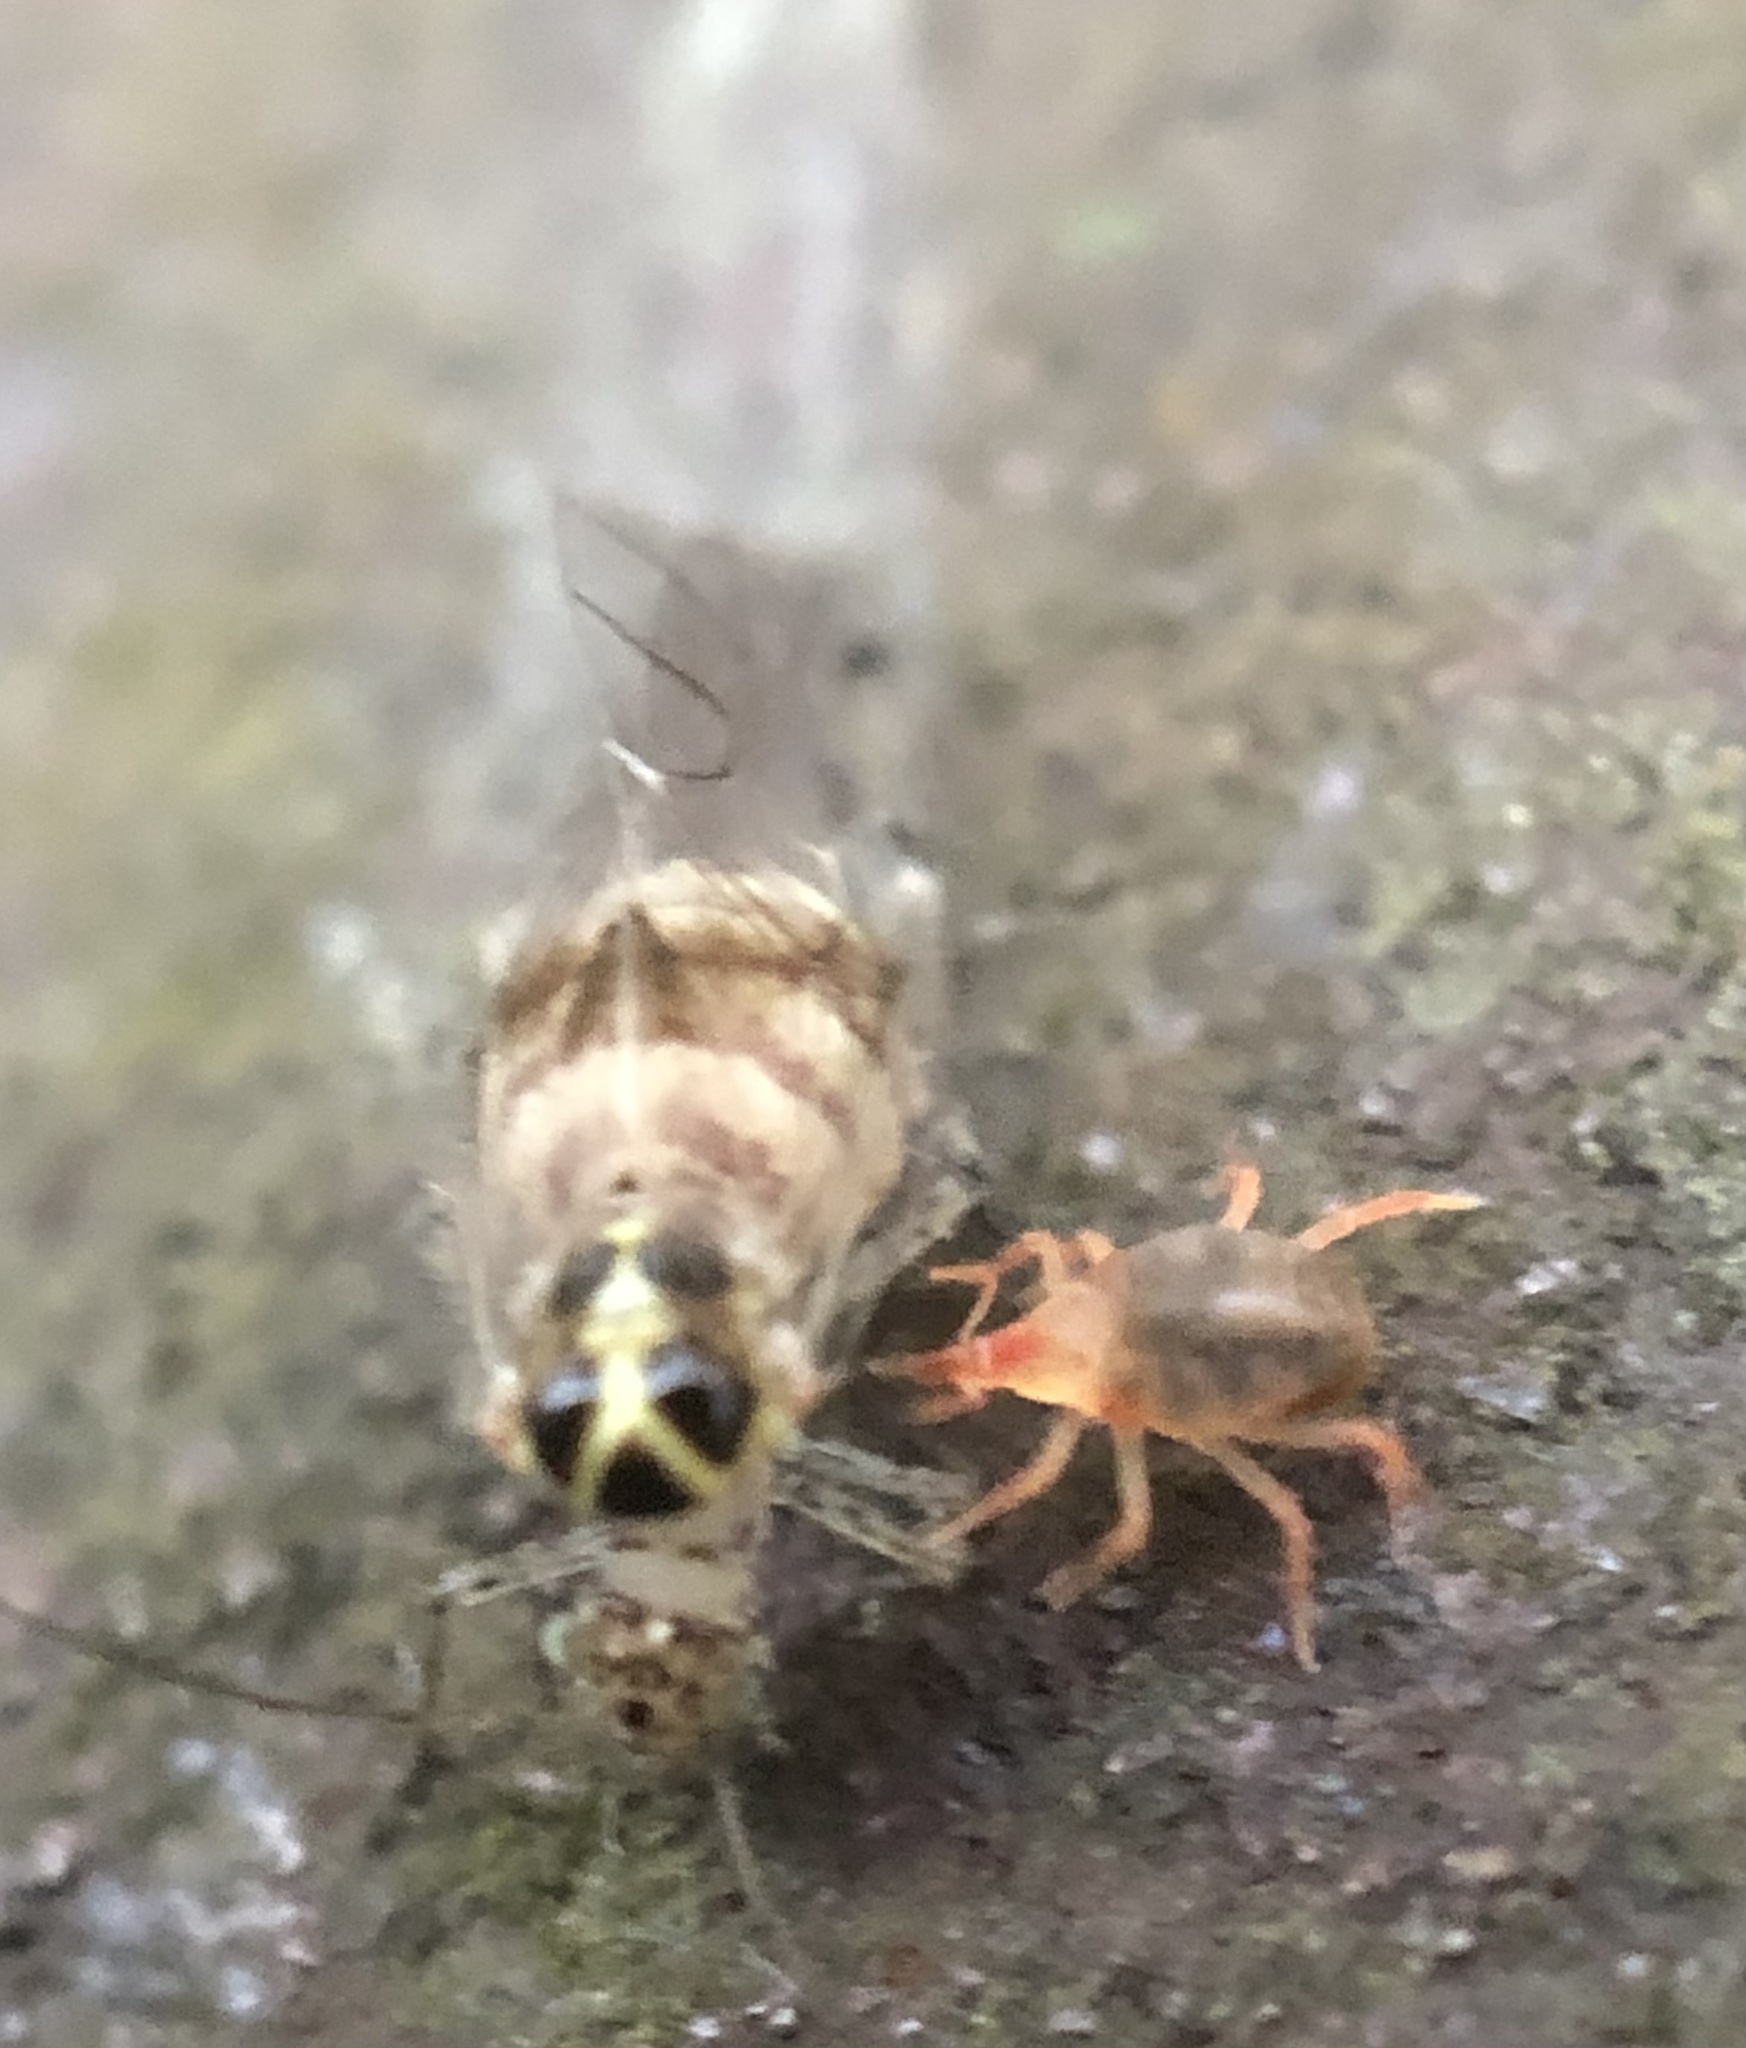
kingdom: Animalia
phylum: Arthropoda
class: Insecta
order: Psocodea
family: Dasydemellidae
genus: Teliapsocus
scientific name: Teliapsocus conterminus
